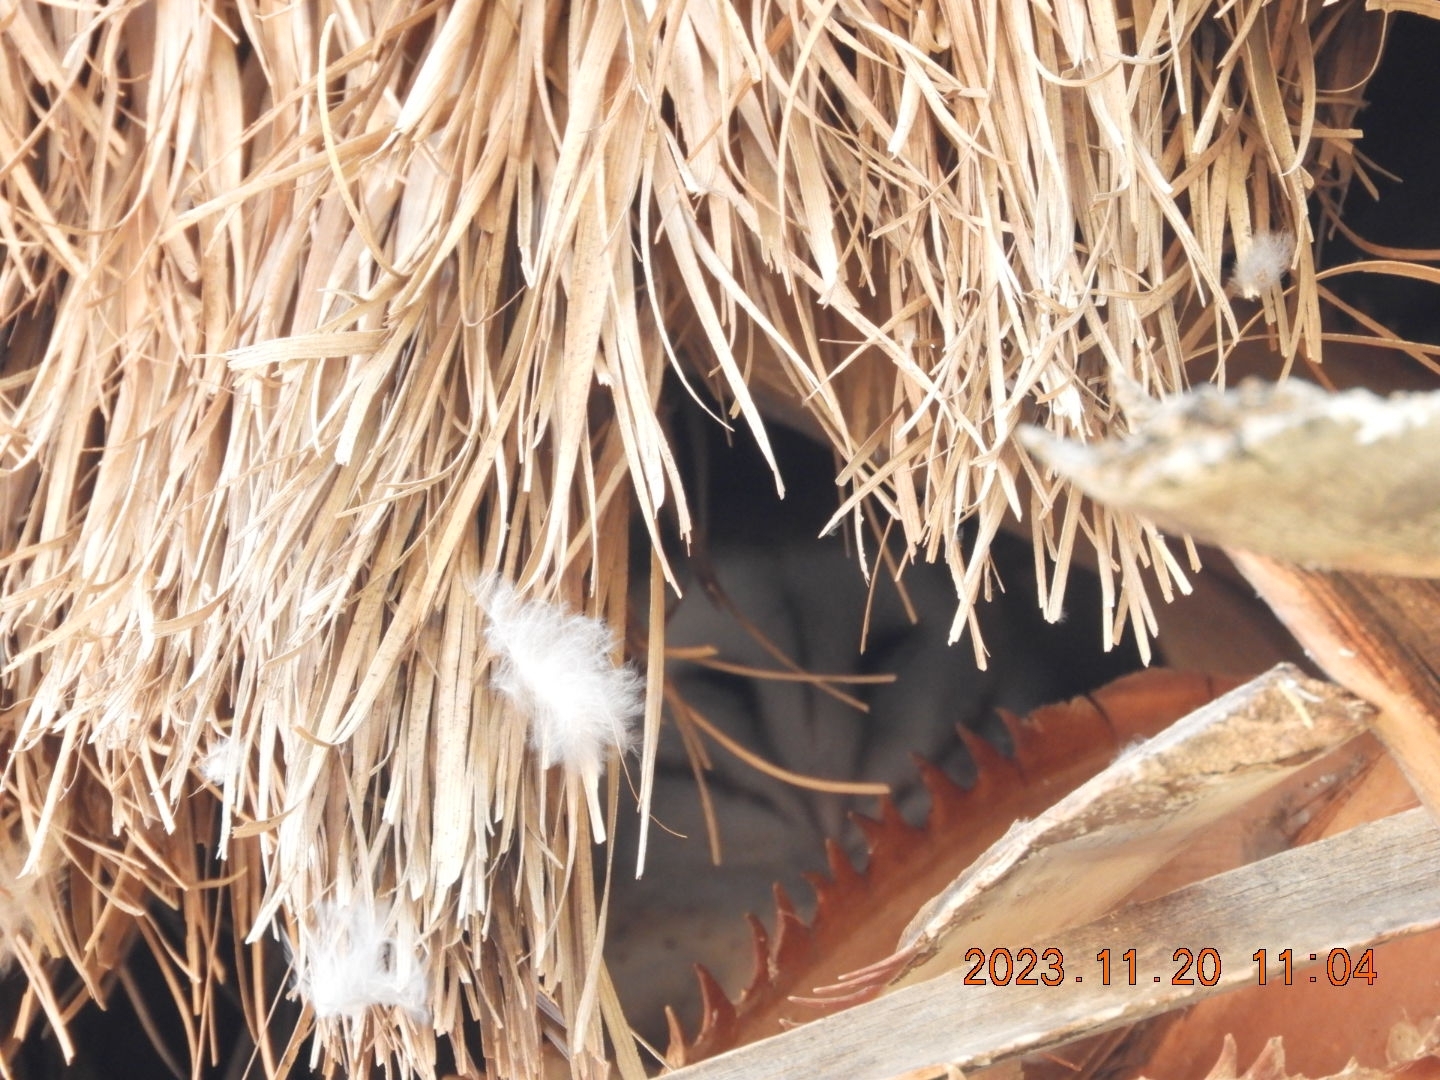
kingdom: Animalia
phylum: Chordata
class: Aves
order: Strigiformes
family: Tytonidae
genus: Tyto
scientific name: Tyto alba
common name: Barn owl
